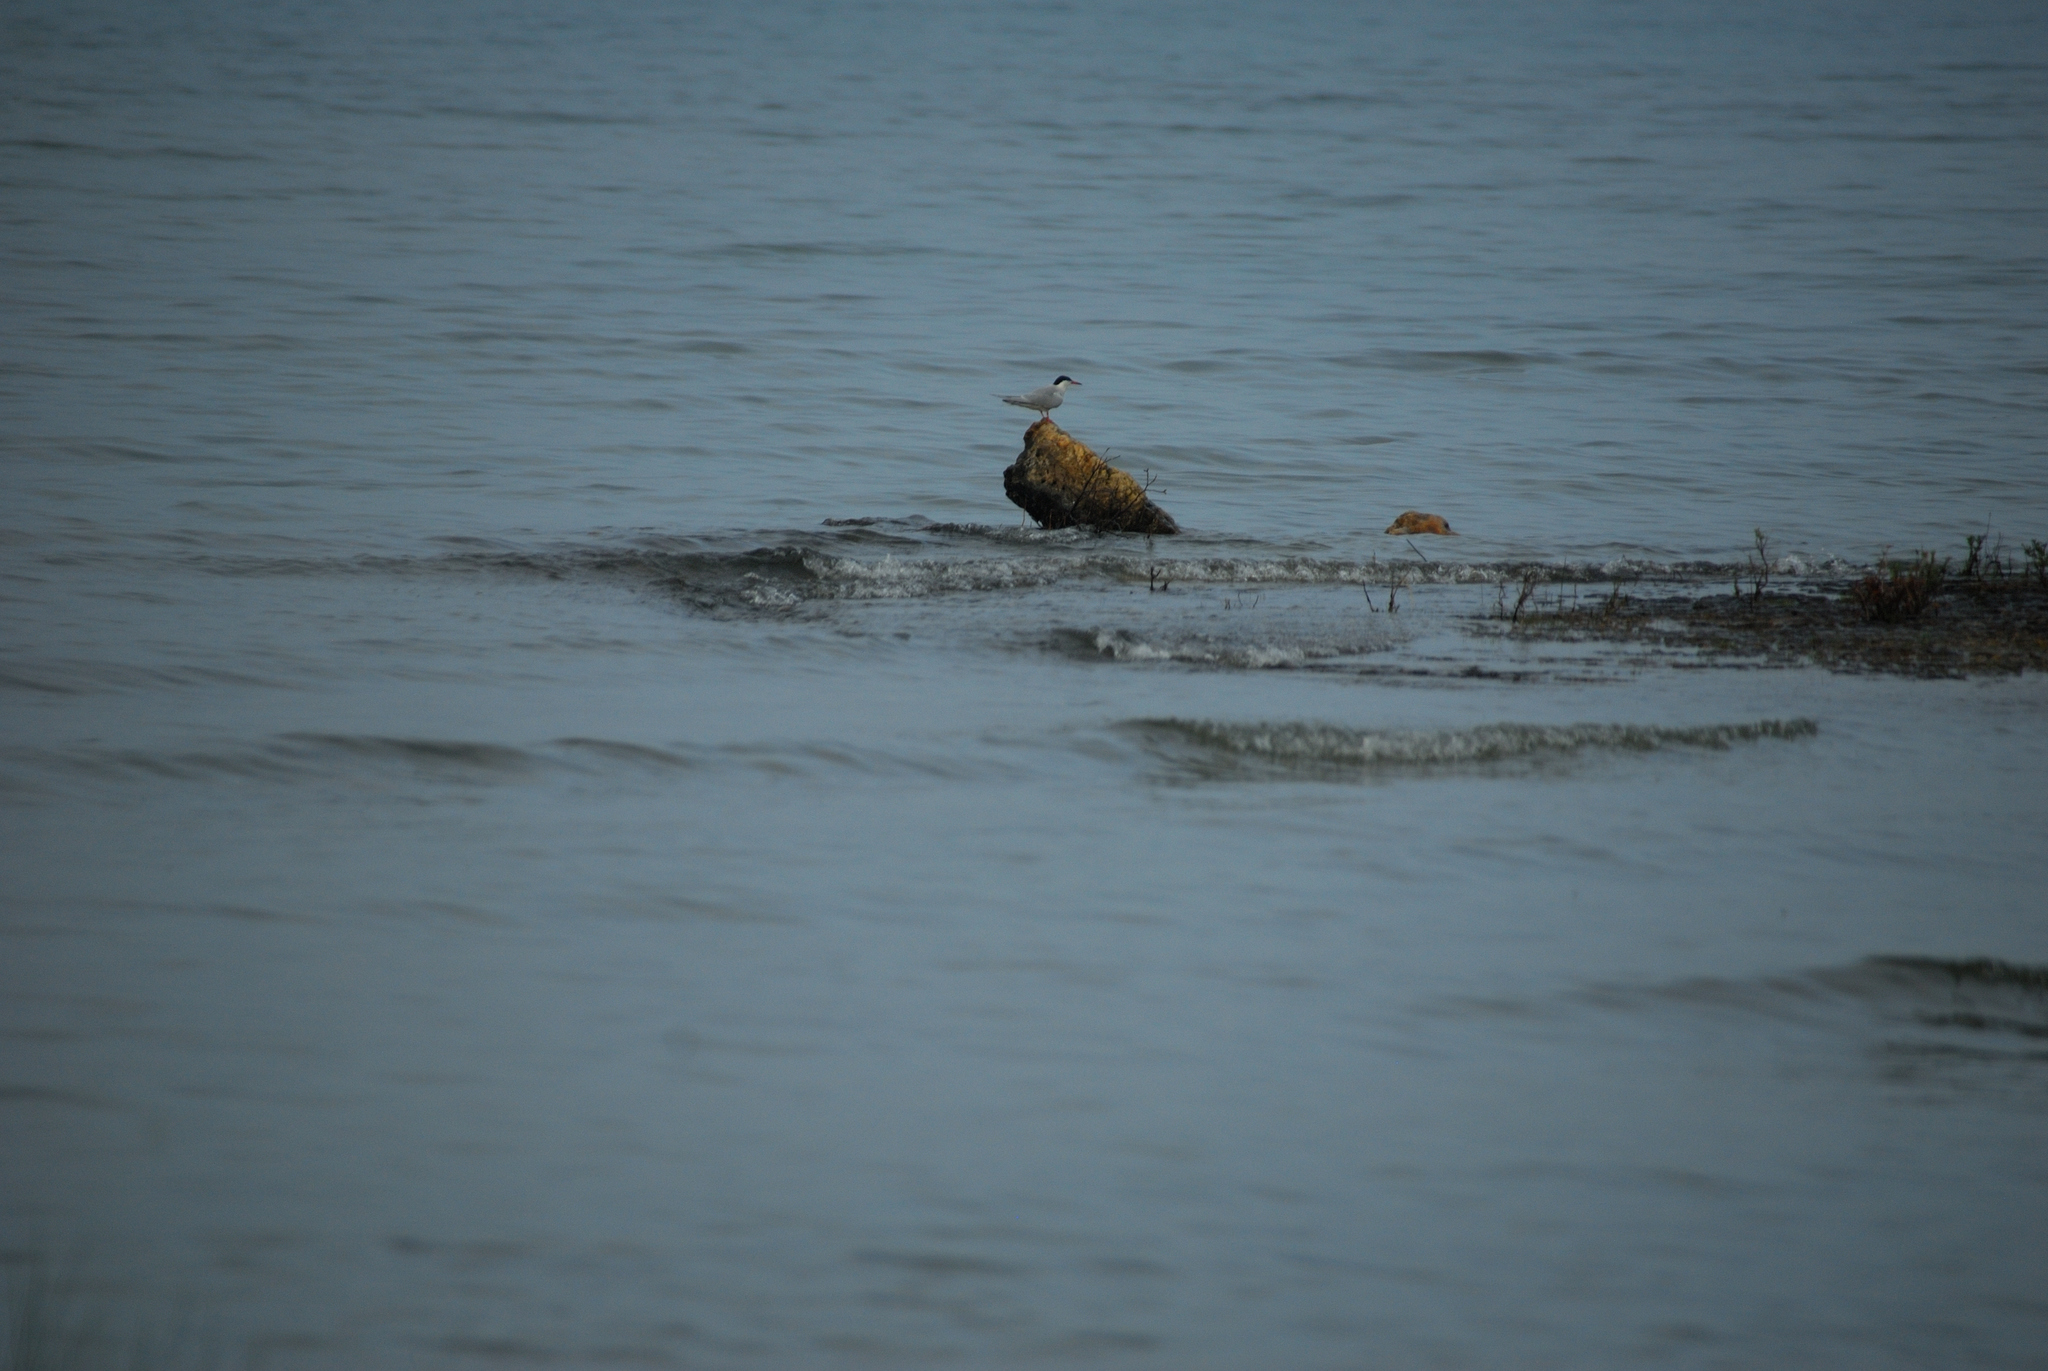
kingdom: Animalia
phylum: Chordata
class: Aves
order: Charadriiformes
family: Laridae
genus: Sterna
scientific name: Sterna hirundo
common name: Common tern
